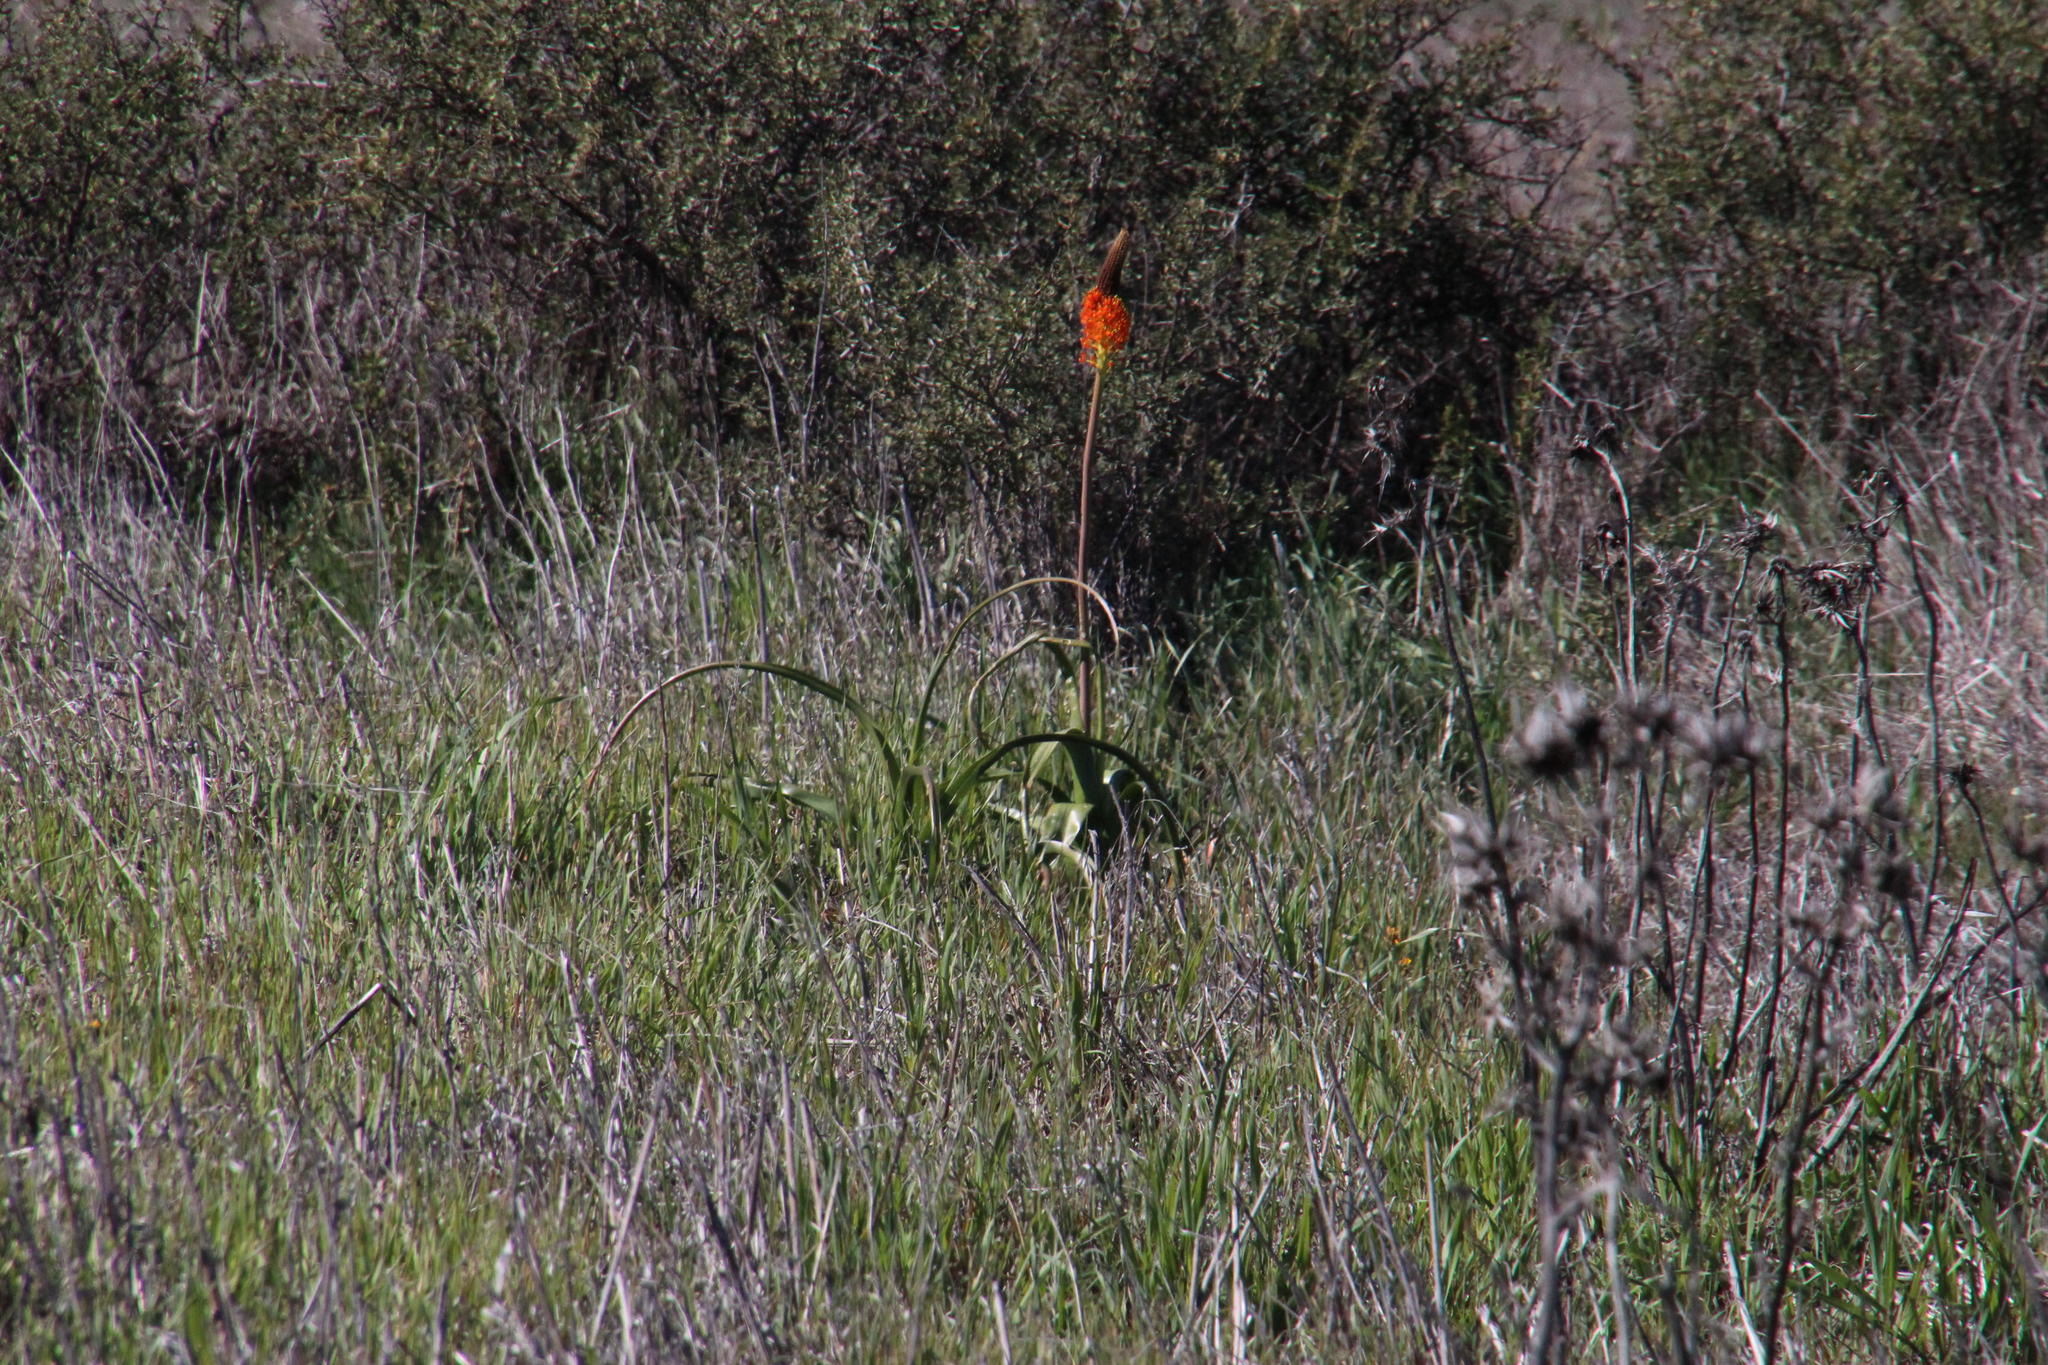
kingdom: Plantae
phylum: Tracheophyta
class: Liliopsida
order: Asparagales
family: Asphodelaceae
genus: Bulbinella
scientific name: Bulbinella latifolia
